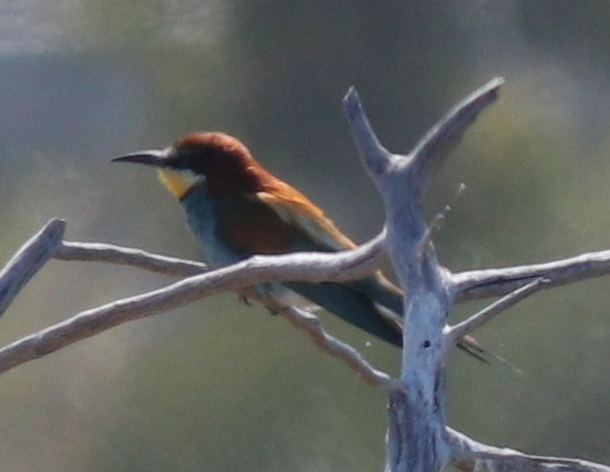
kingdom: Animalia
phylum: Chordata
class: Aves
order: Coraciiformes
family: Meropidae
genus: Merops
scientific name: Merops apiaster
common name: European bee-eater
